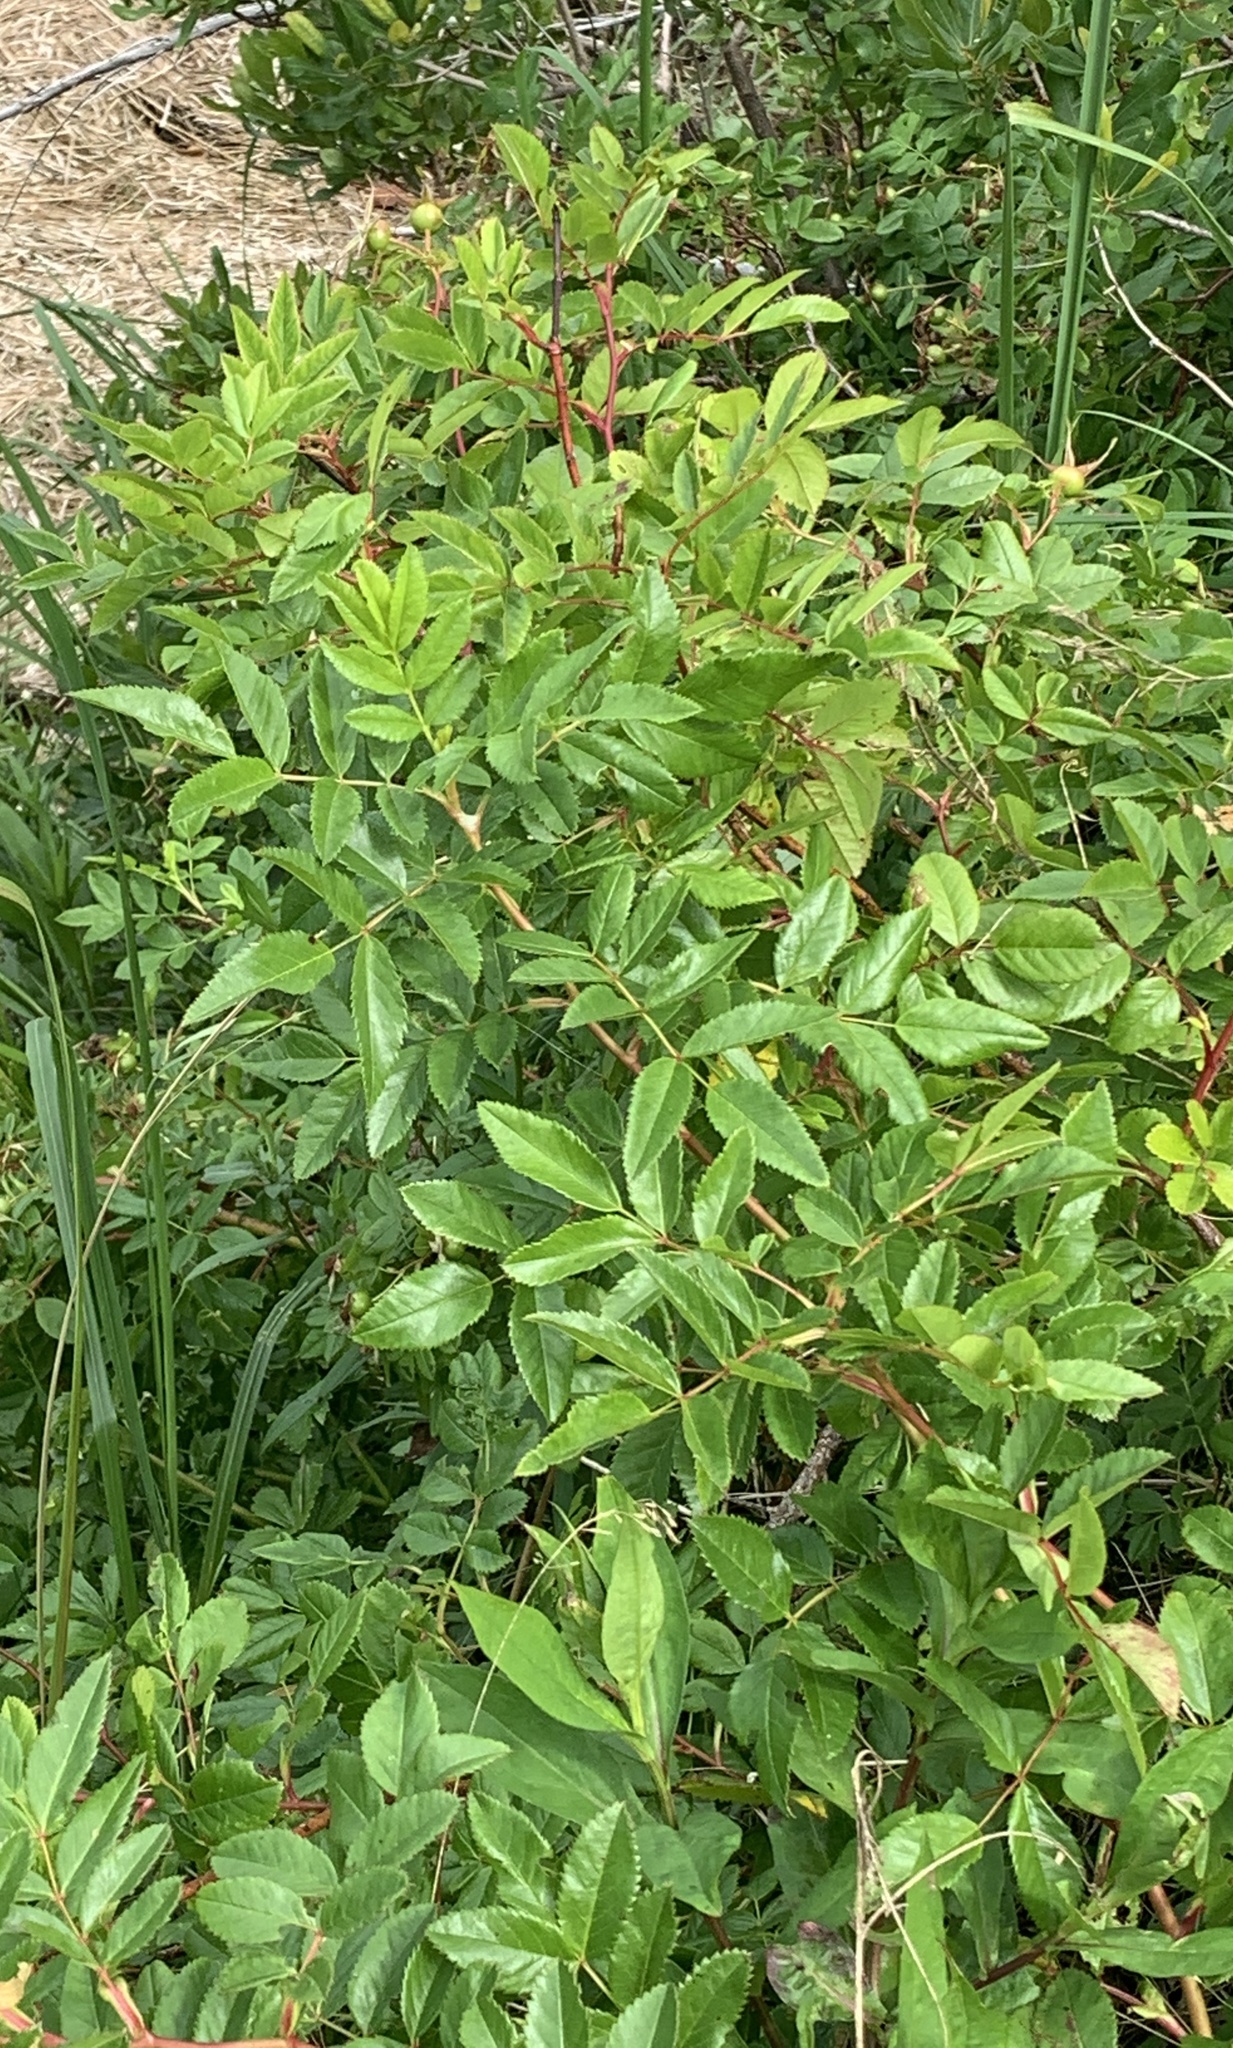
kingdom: Plantae
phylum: Tracheophyta
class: Magnoliopsida
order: Rosales
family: Rosaceae
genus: Rosa
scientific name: Rosa virginiana
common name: Virginian rose
